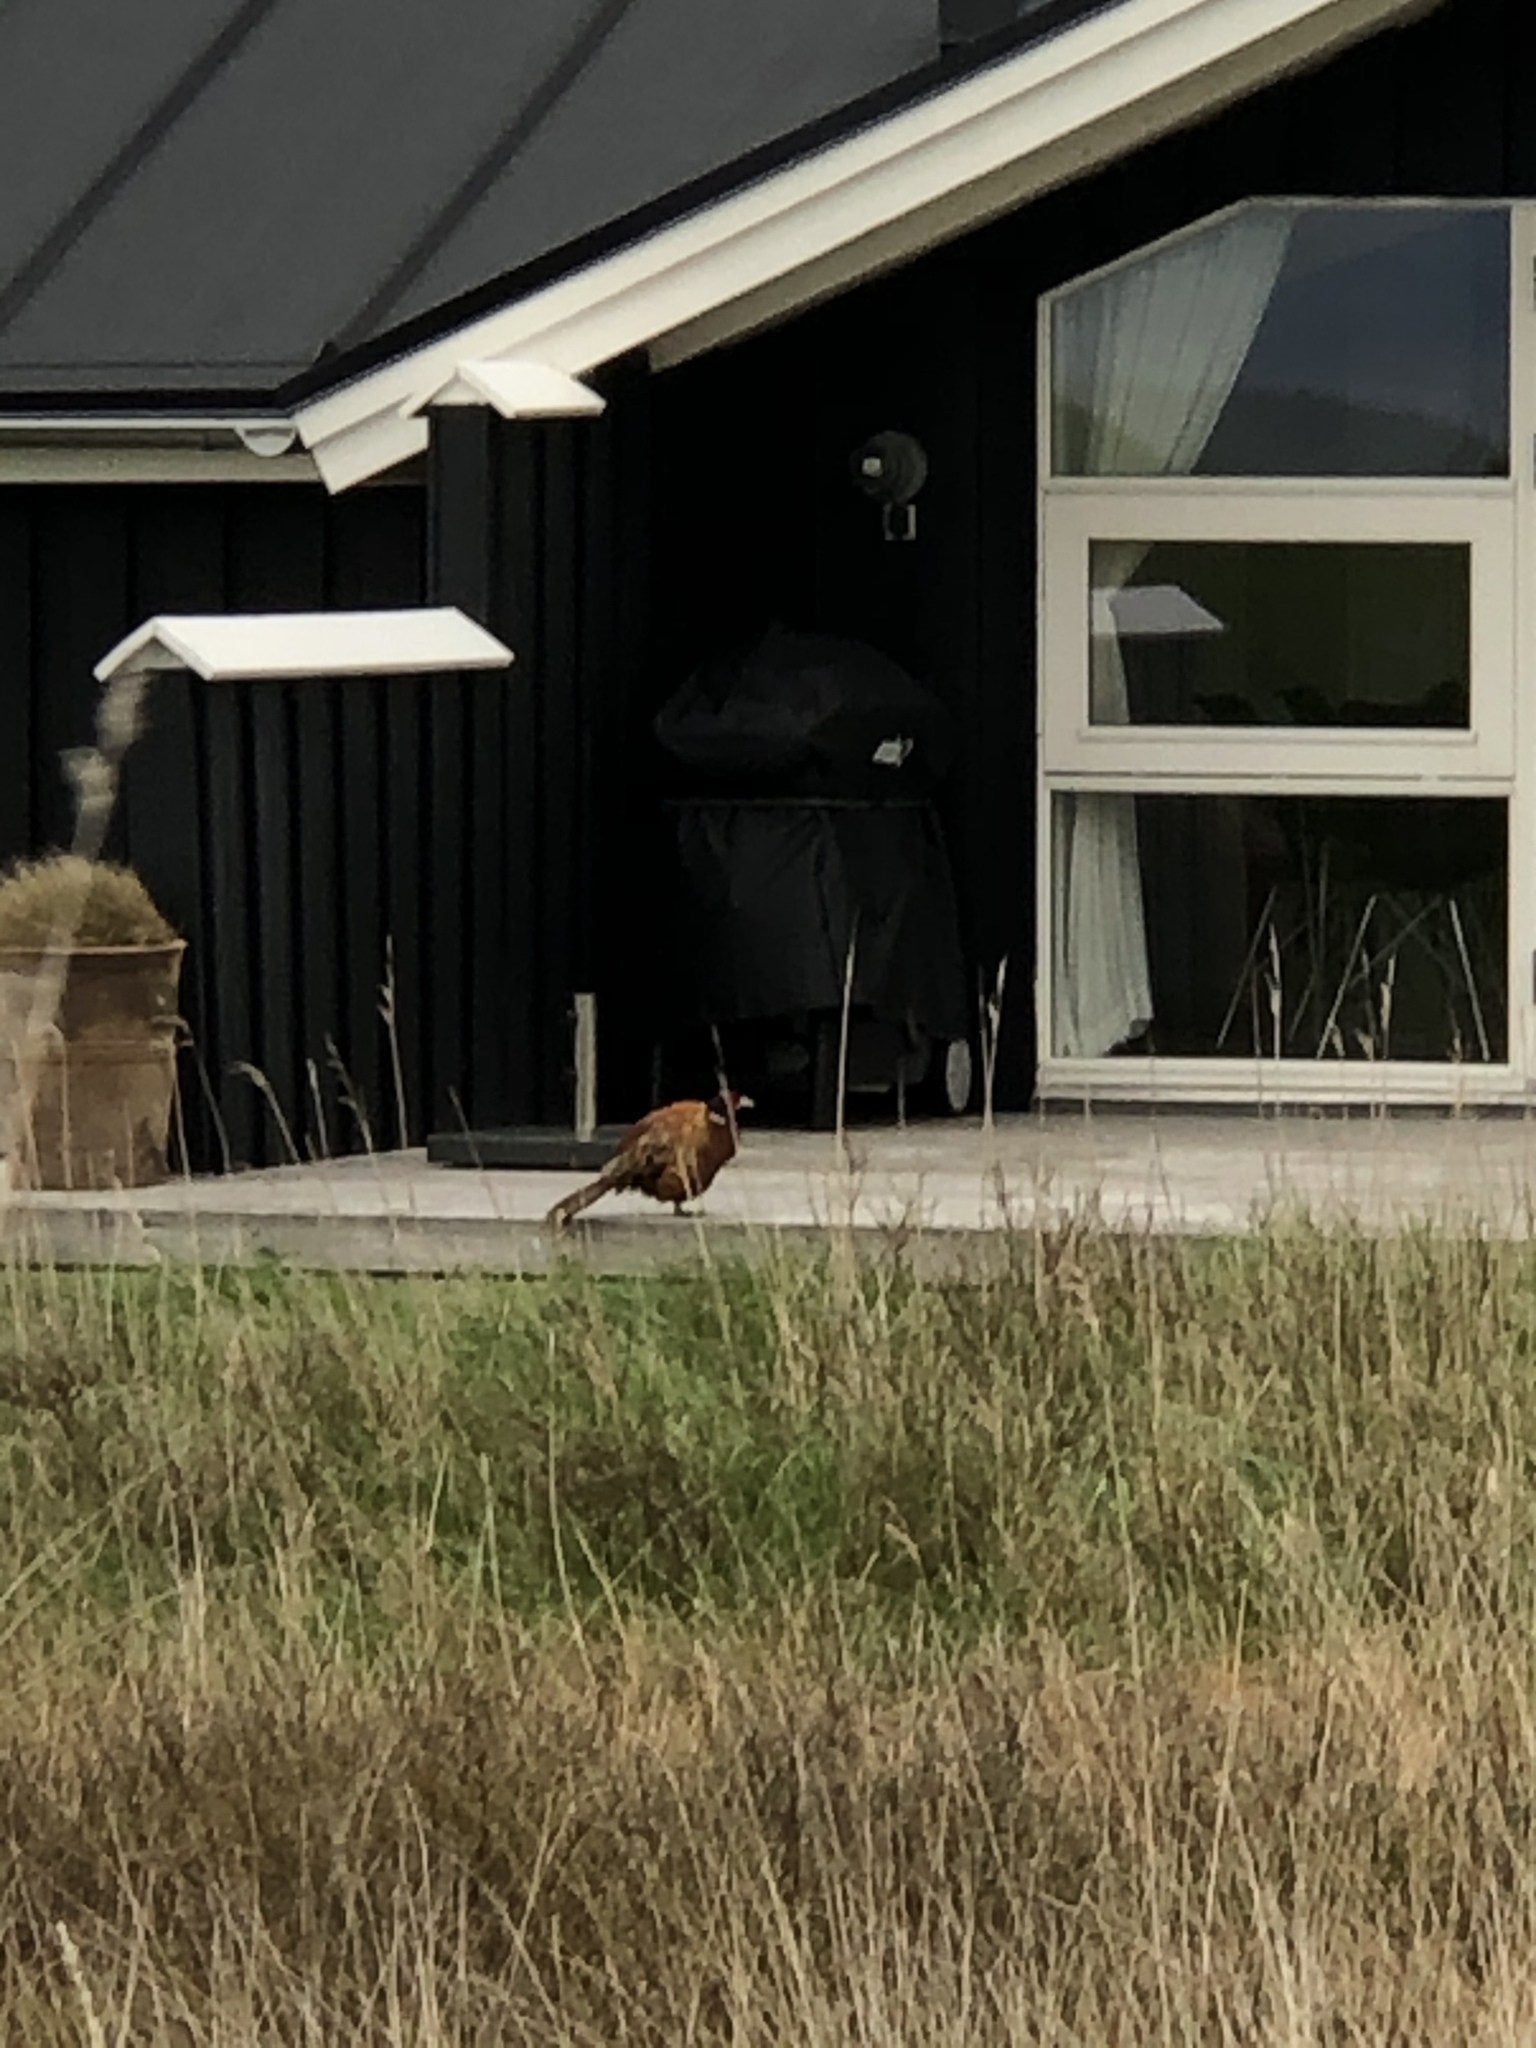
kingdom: Animalia
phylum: Chordata
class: Aves
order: Galliformes
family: Phasianidae
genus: Phasianus
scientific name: Phasianus colchicus
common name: Common pheasant
